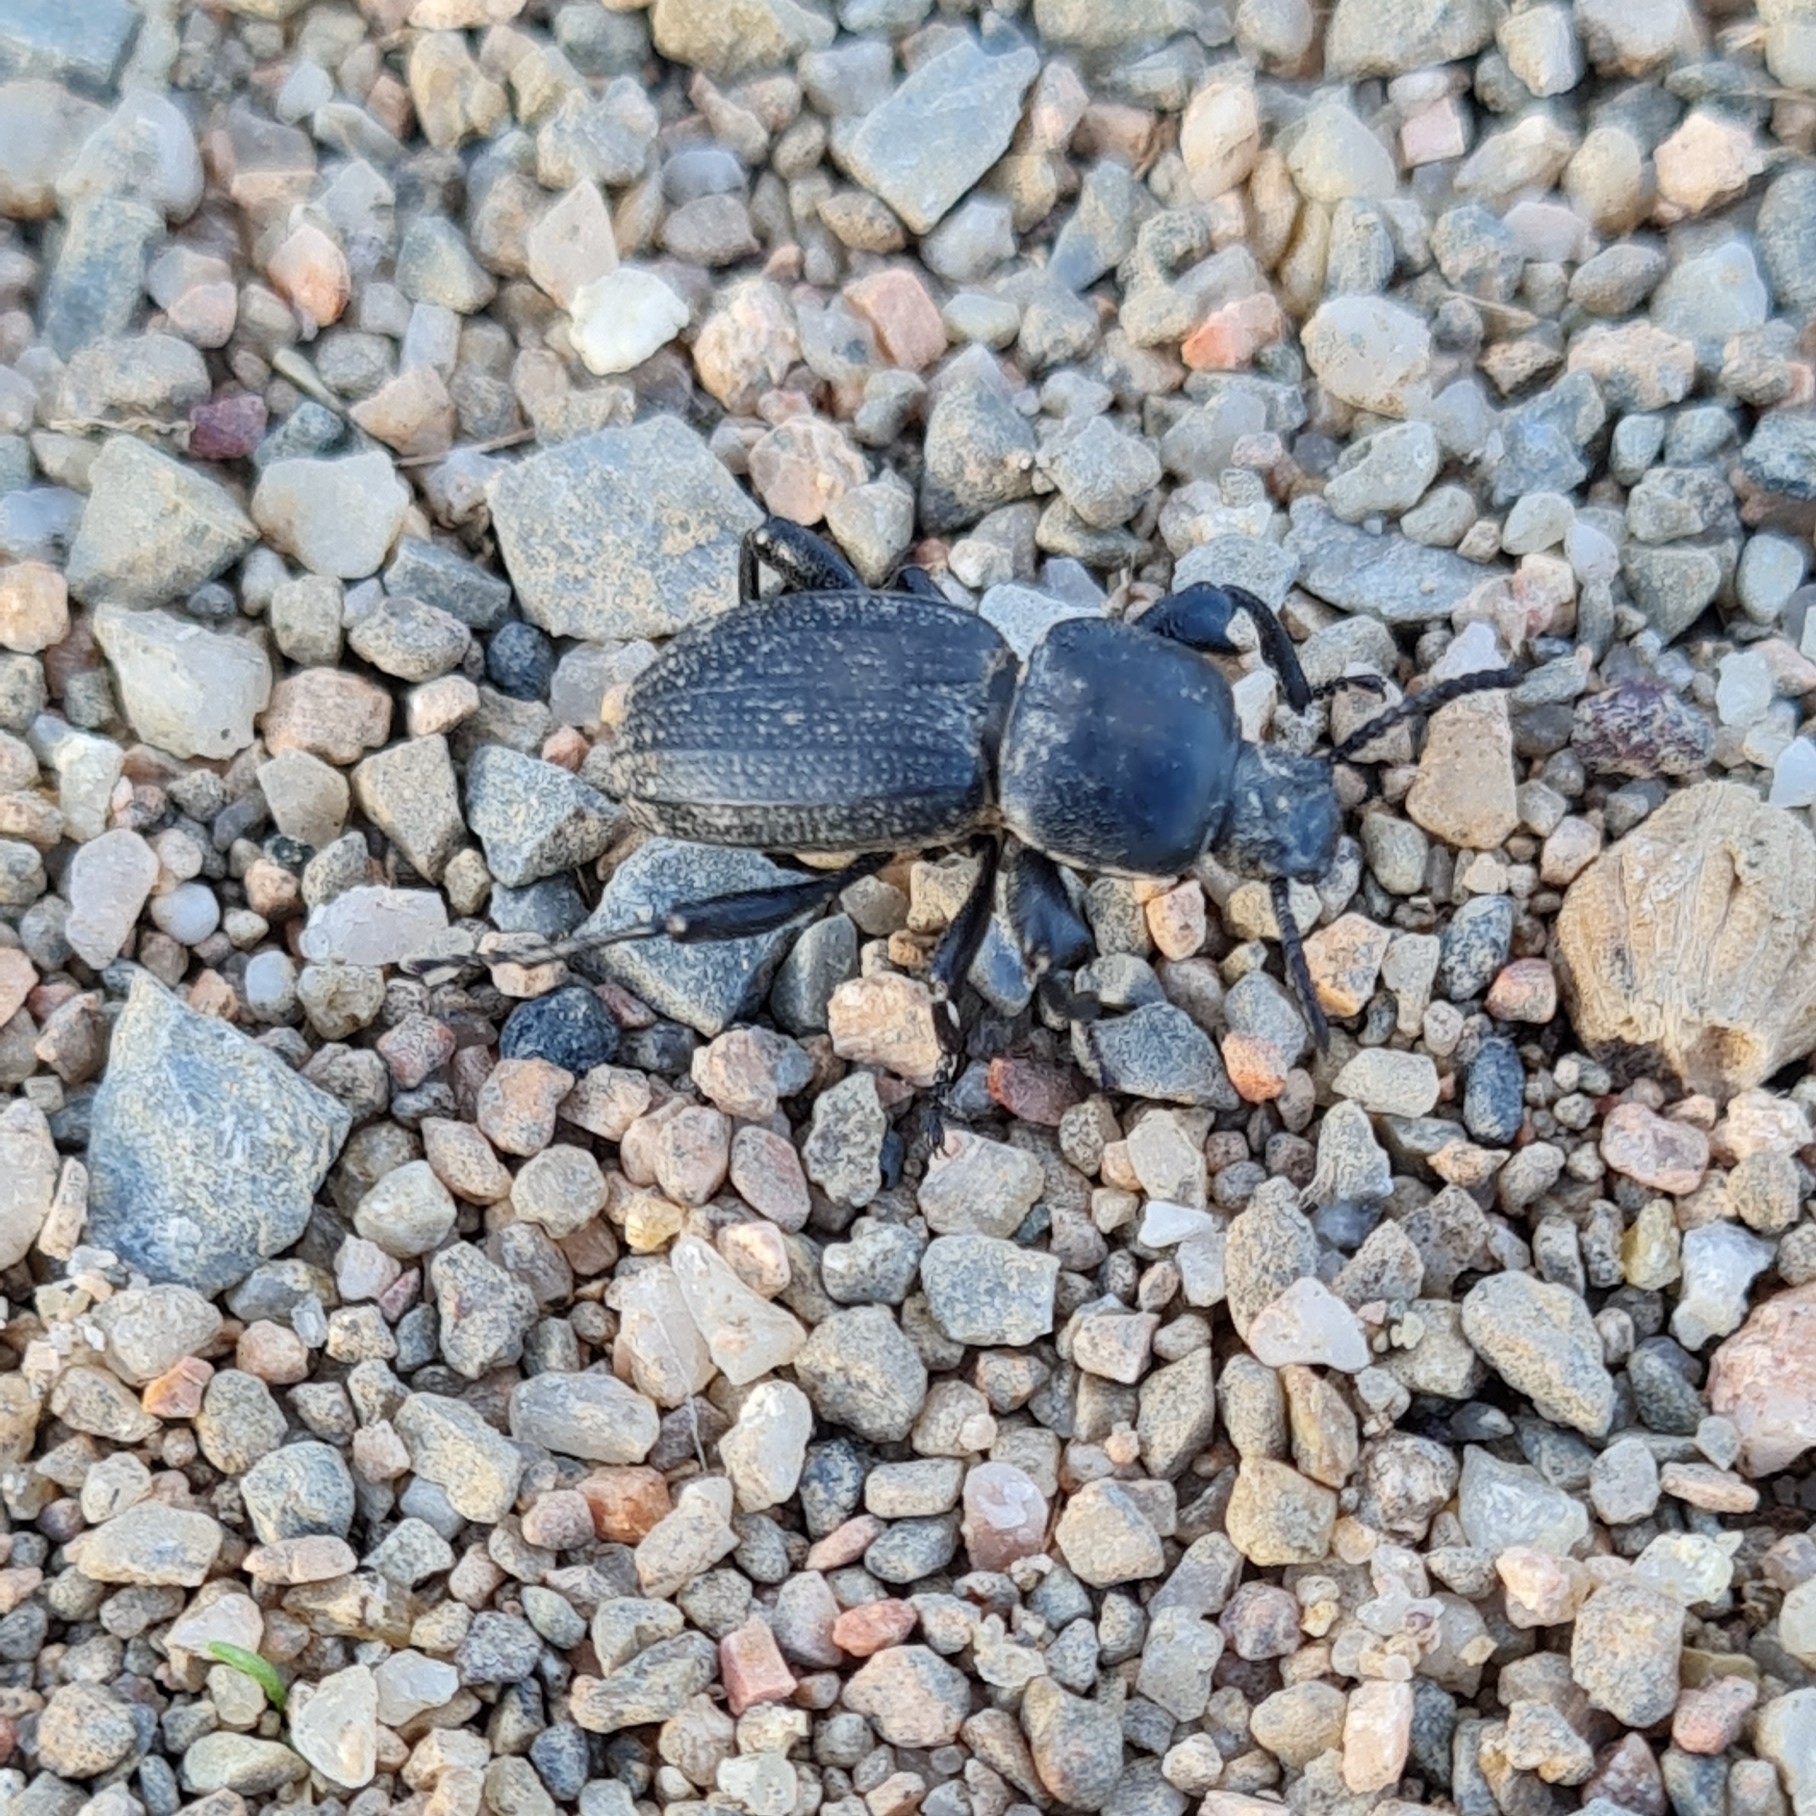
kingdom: Animalia
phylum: Arthropoda
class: Insecta
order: Coleoptera
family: Tenebrionidae
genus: Scaurus
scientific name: Scaurus uncinus
